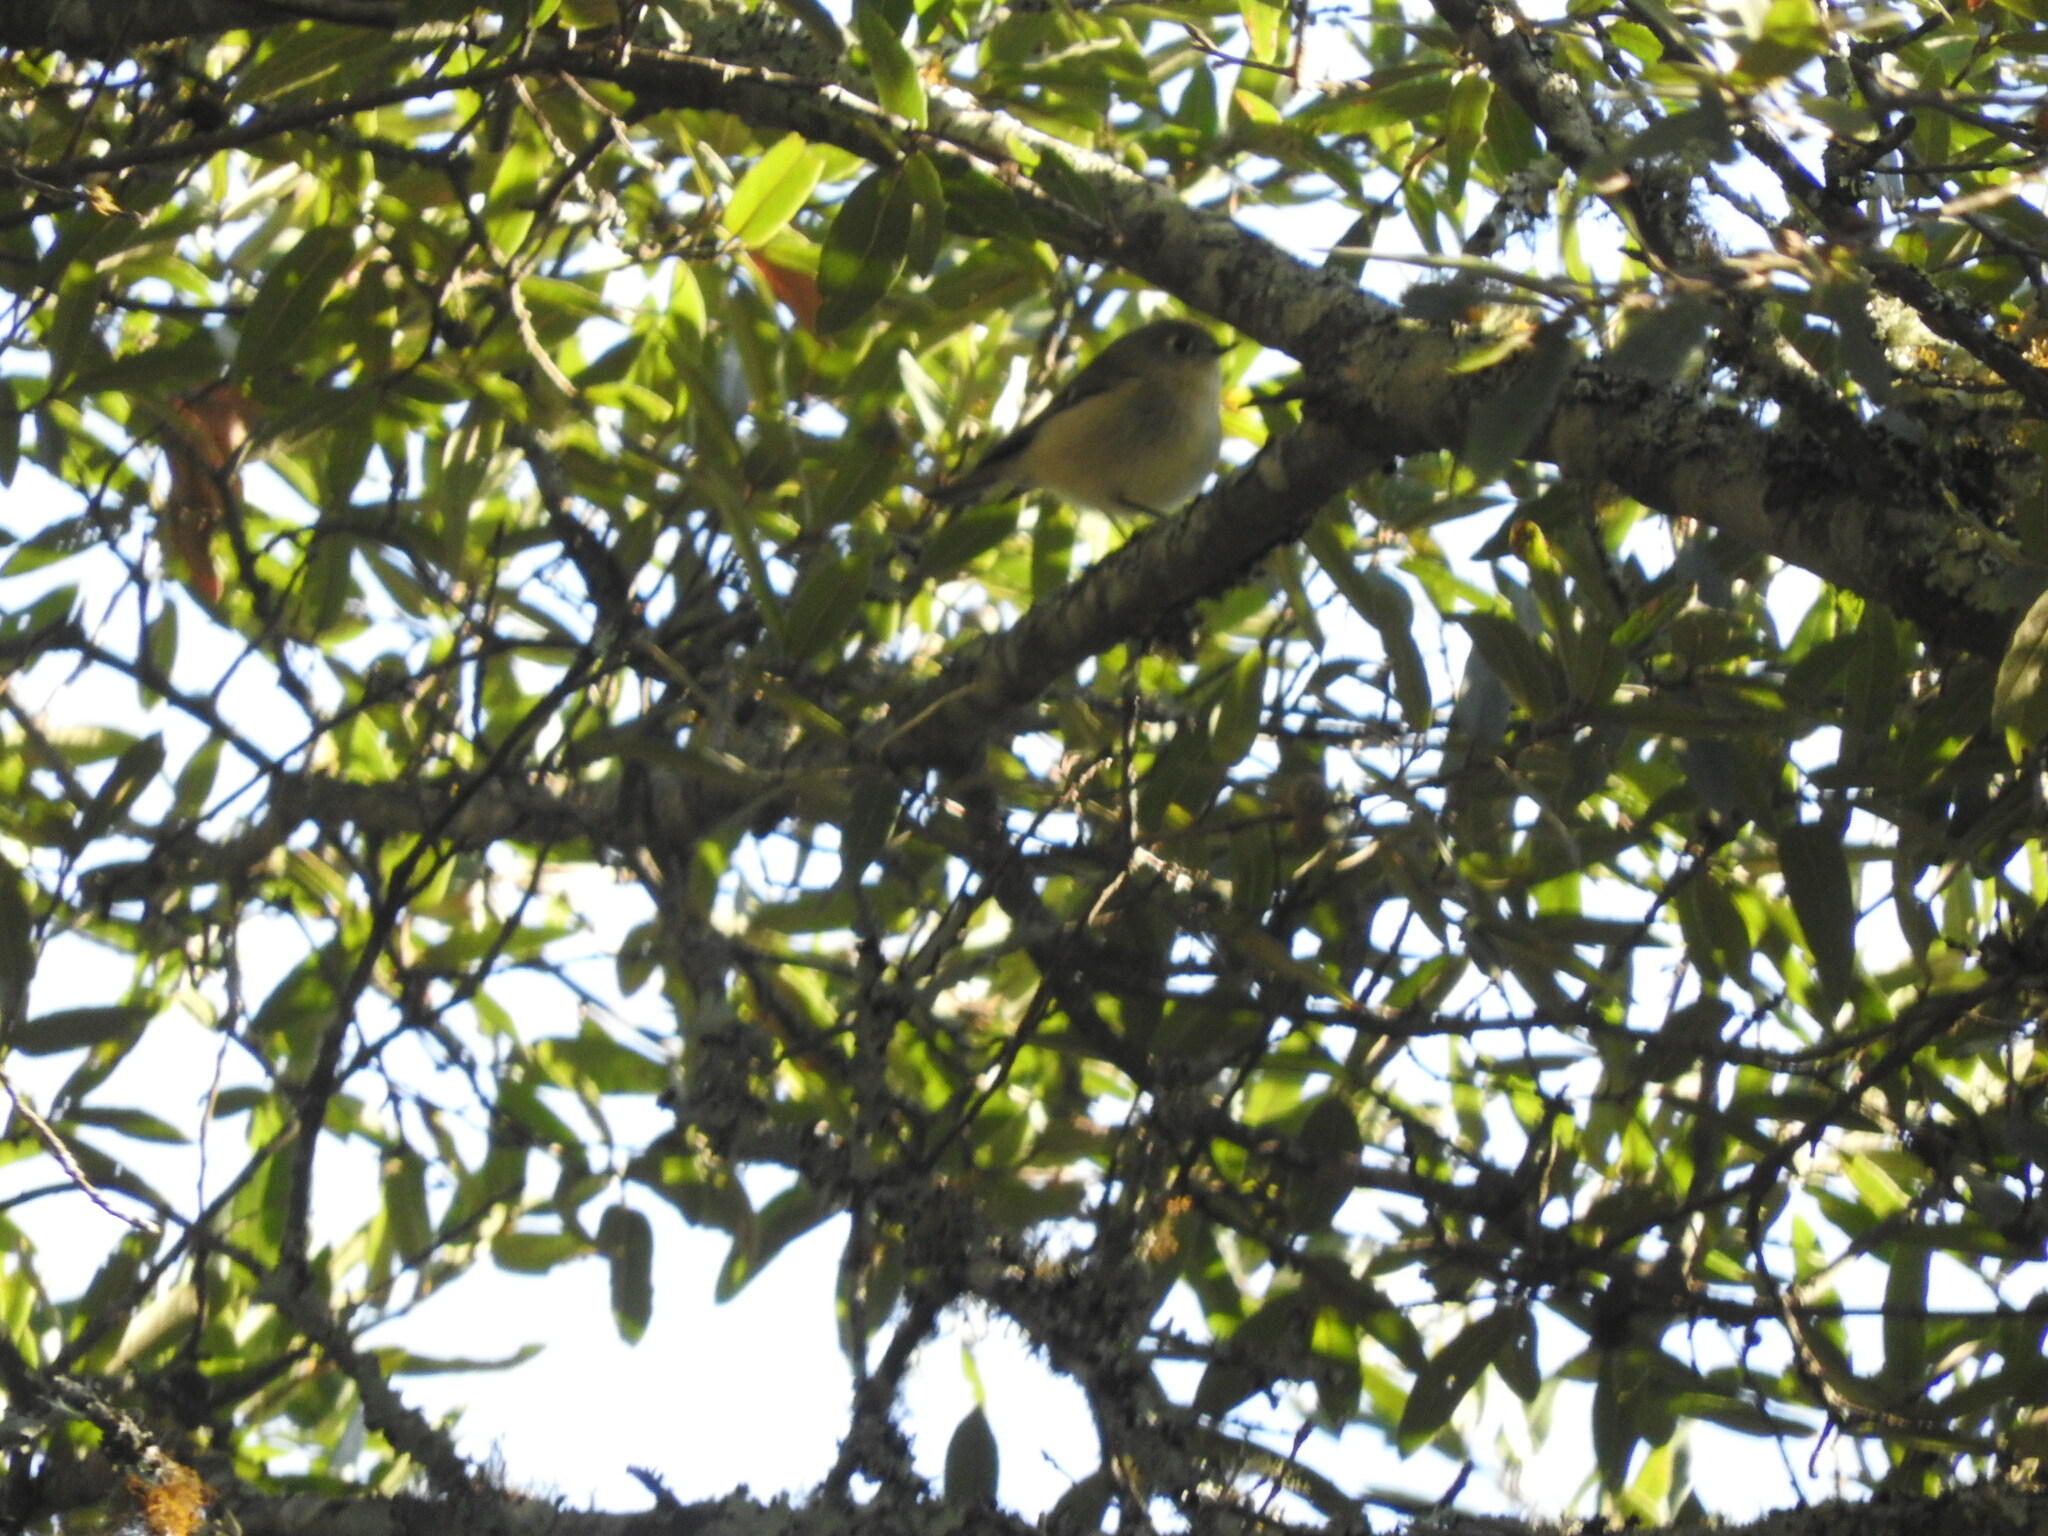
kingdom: Animalia
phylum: Chordata
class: Aves
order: Passeriformes
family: Vireonidae
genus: Vireo
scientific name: Vireo huttoni
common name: Hutton's vireo
